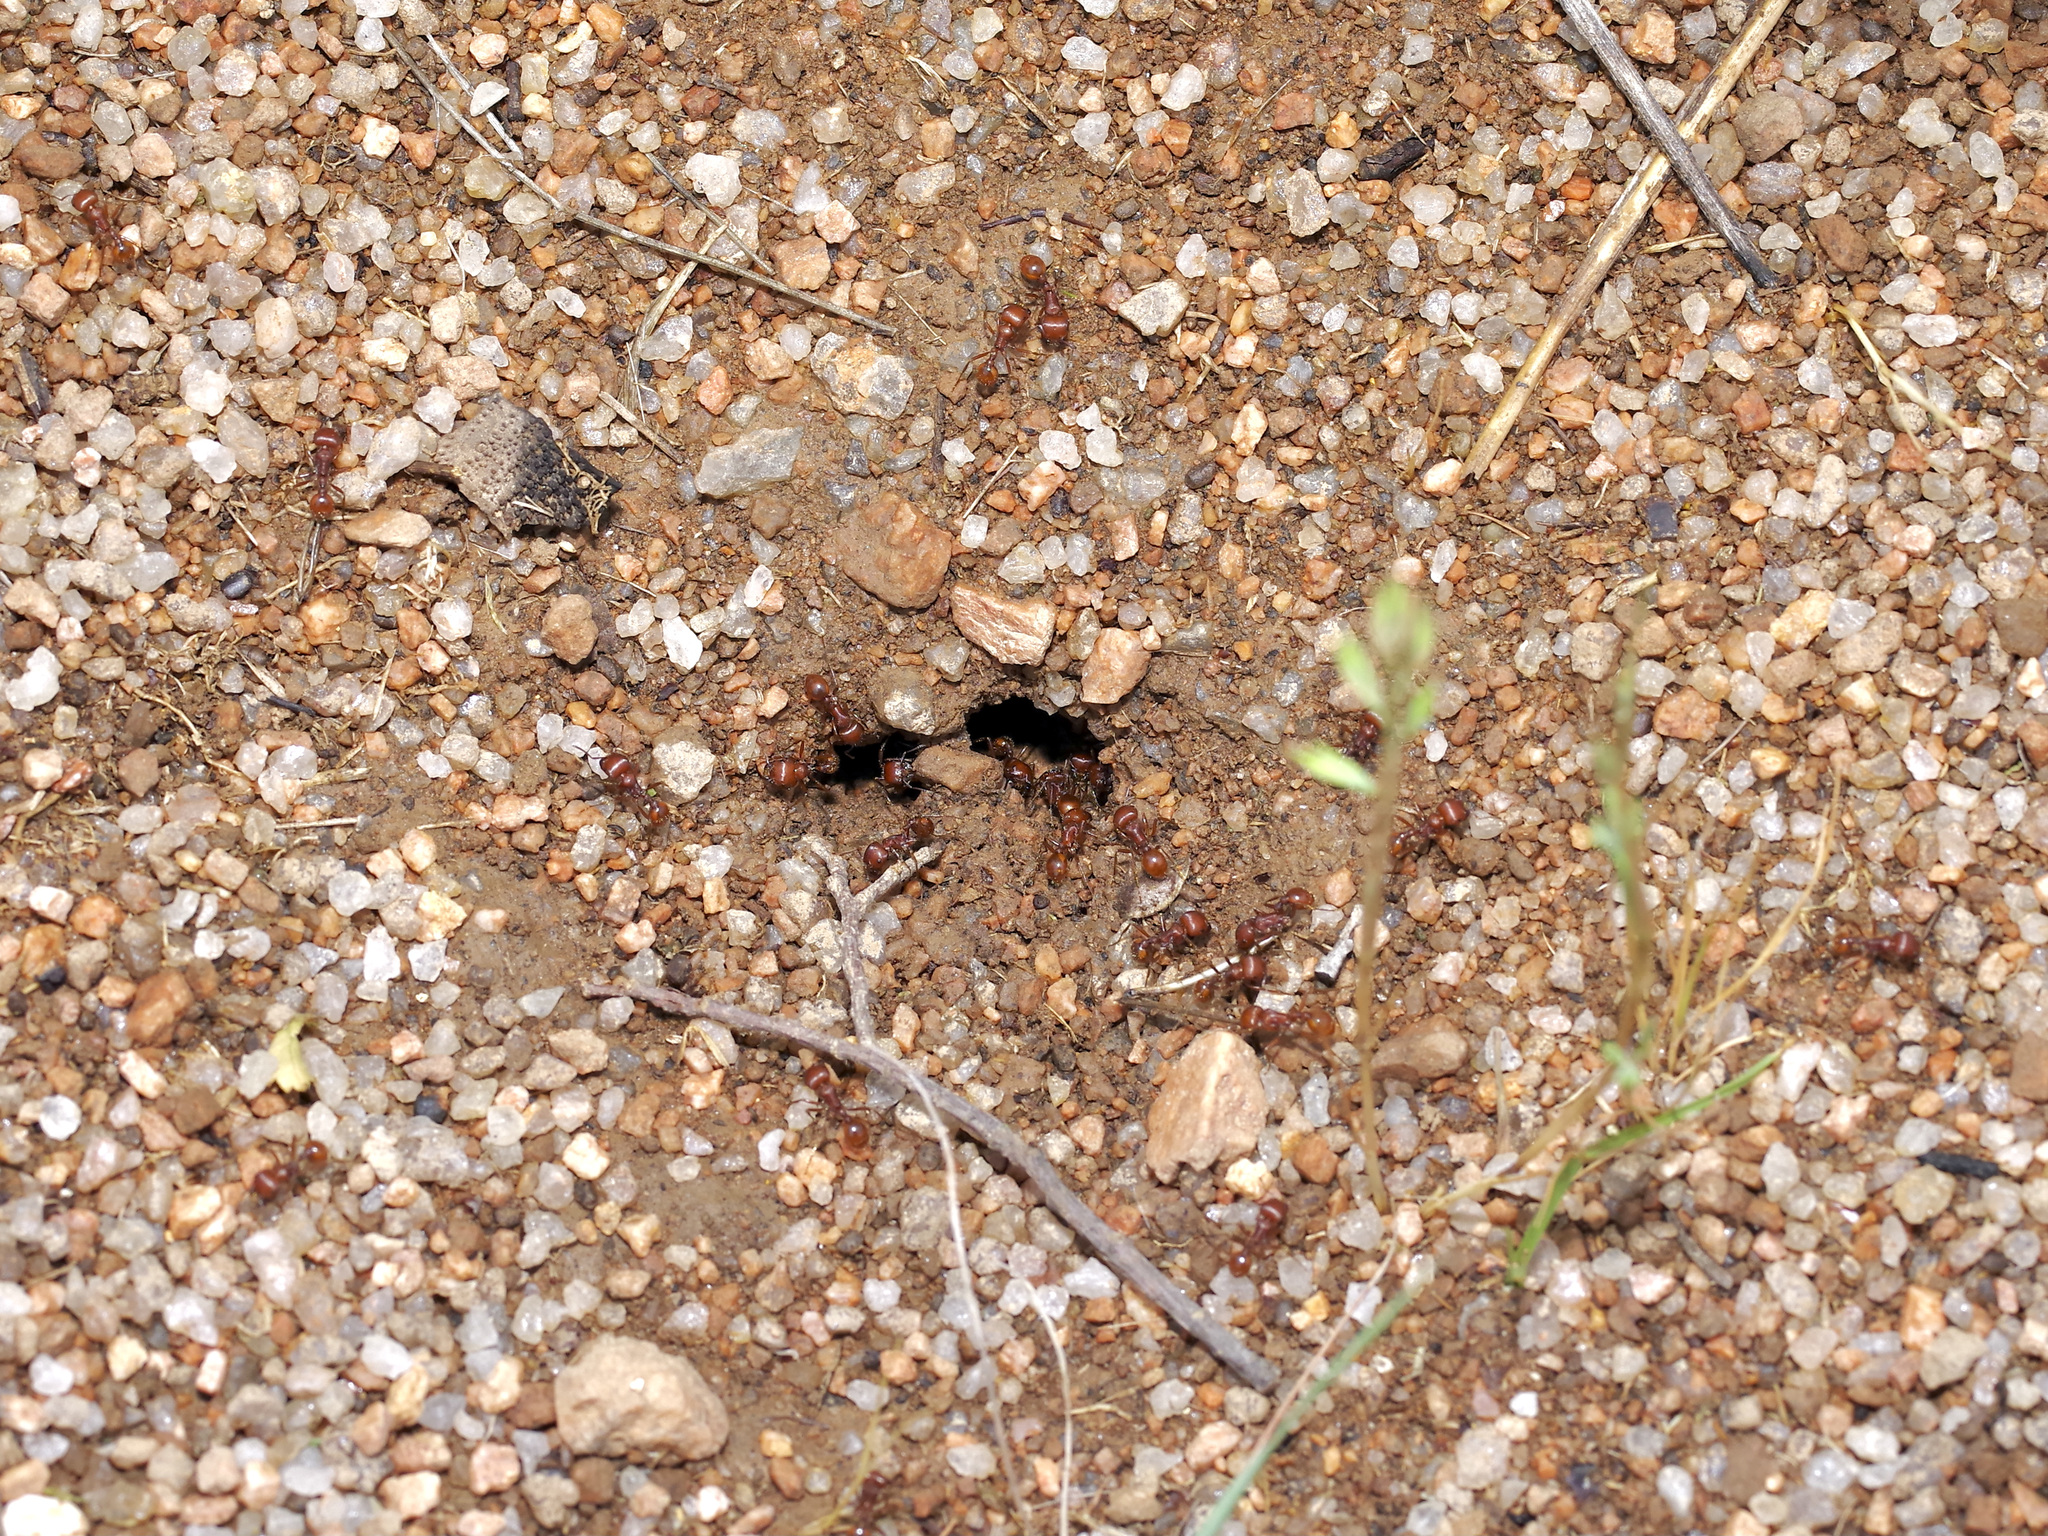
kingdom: Animalia
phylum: Arthropoda
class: Insecta
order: Hymenoptera
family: Formicidae
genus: Pogonomyrmex
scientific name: Pogonomyrmex barbatus
